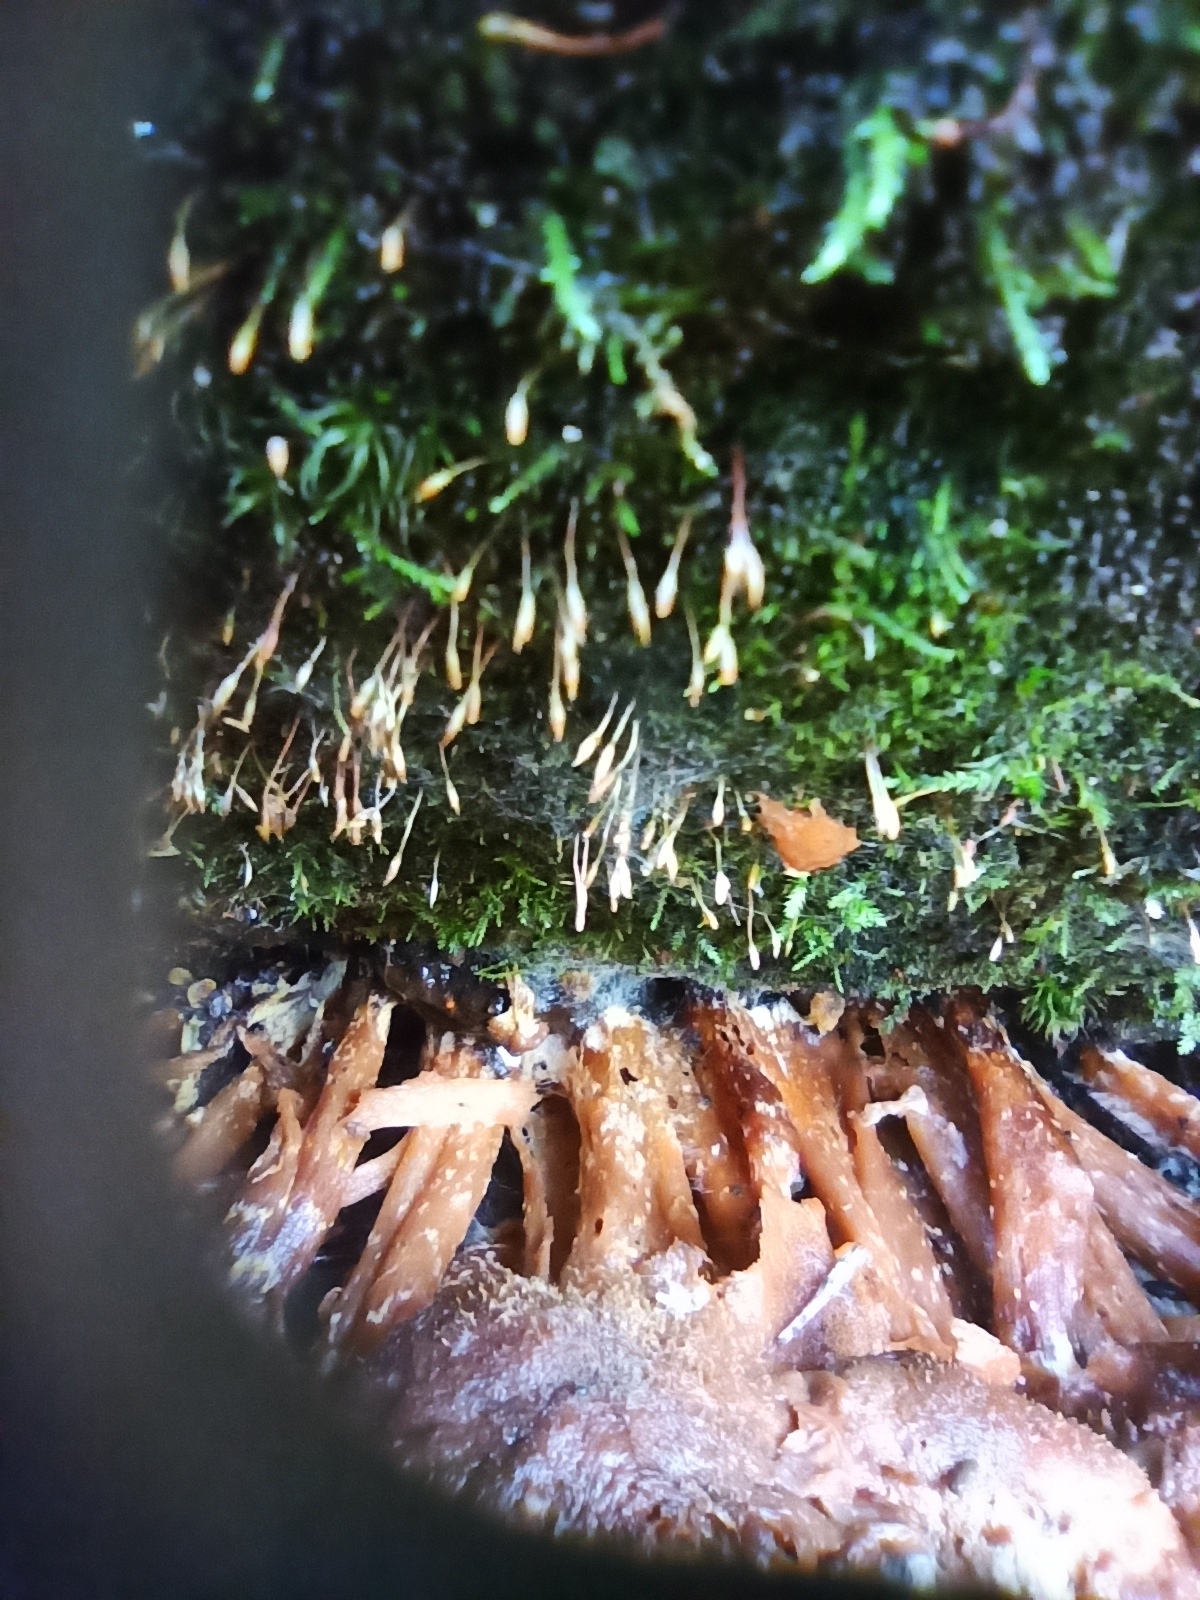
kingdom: Fungi
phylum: Basidiomycota
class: Pucciniomycetes
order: Platygloeales
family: Eocronartiaceae
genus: Eocronartium
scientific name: Eocronartium muscicola
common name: Moss rust
